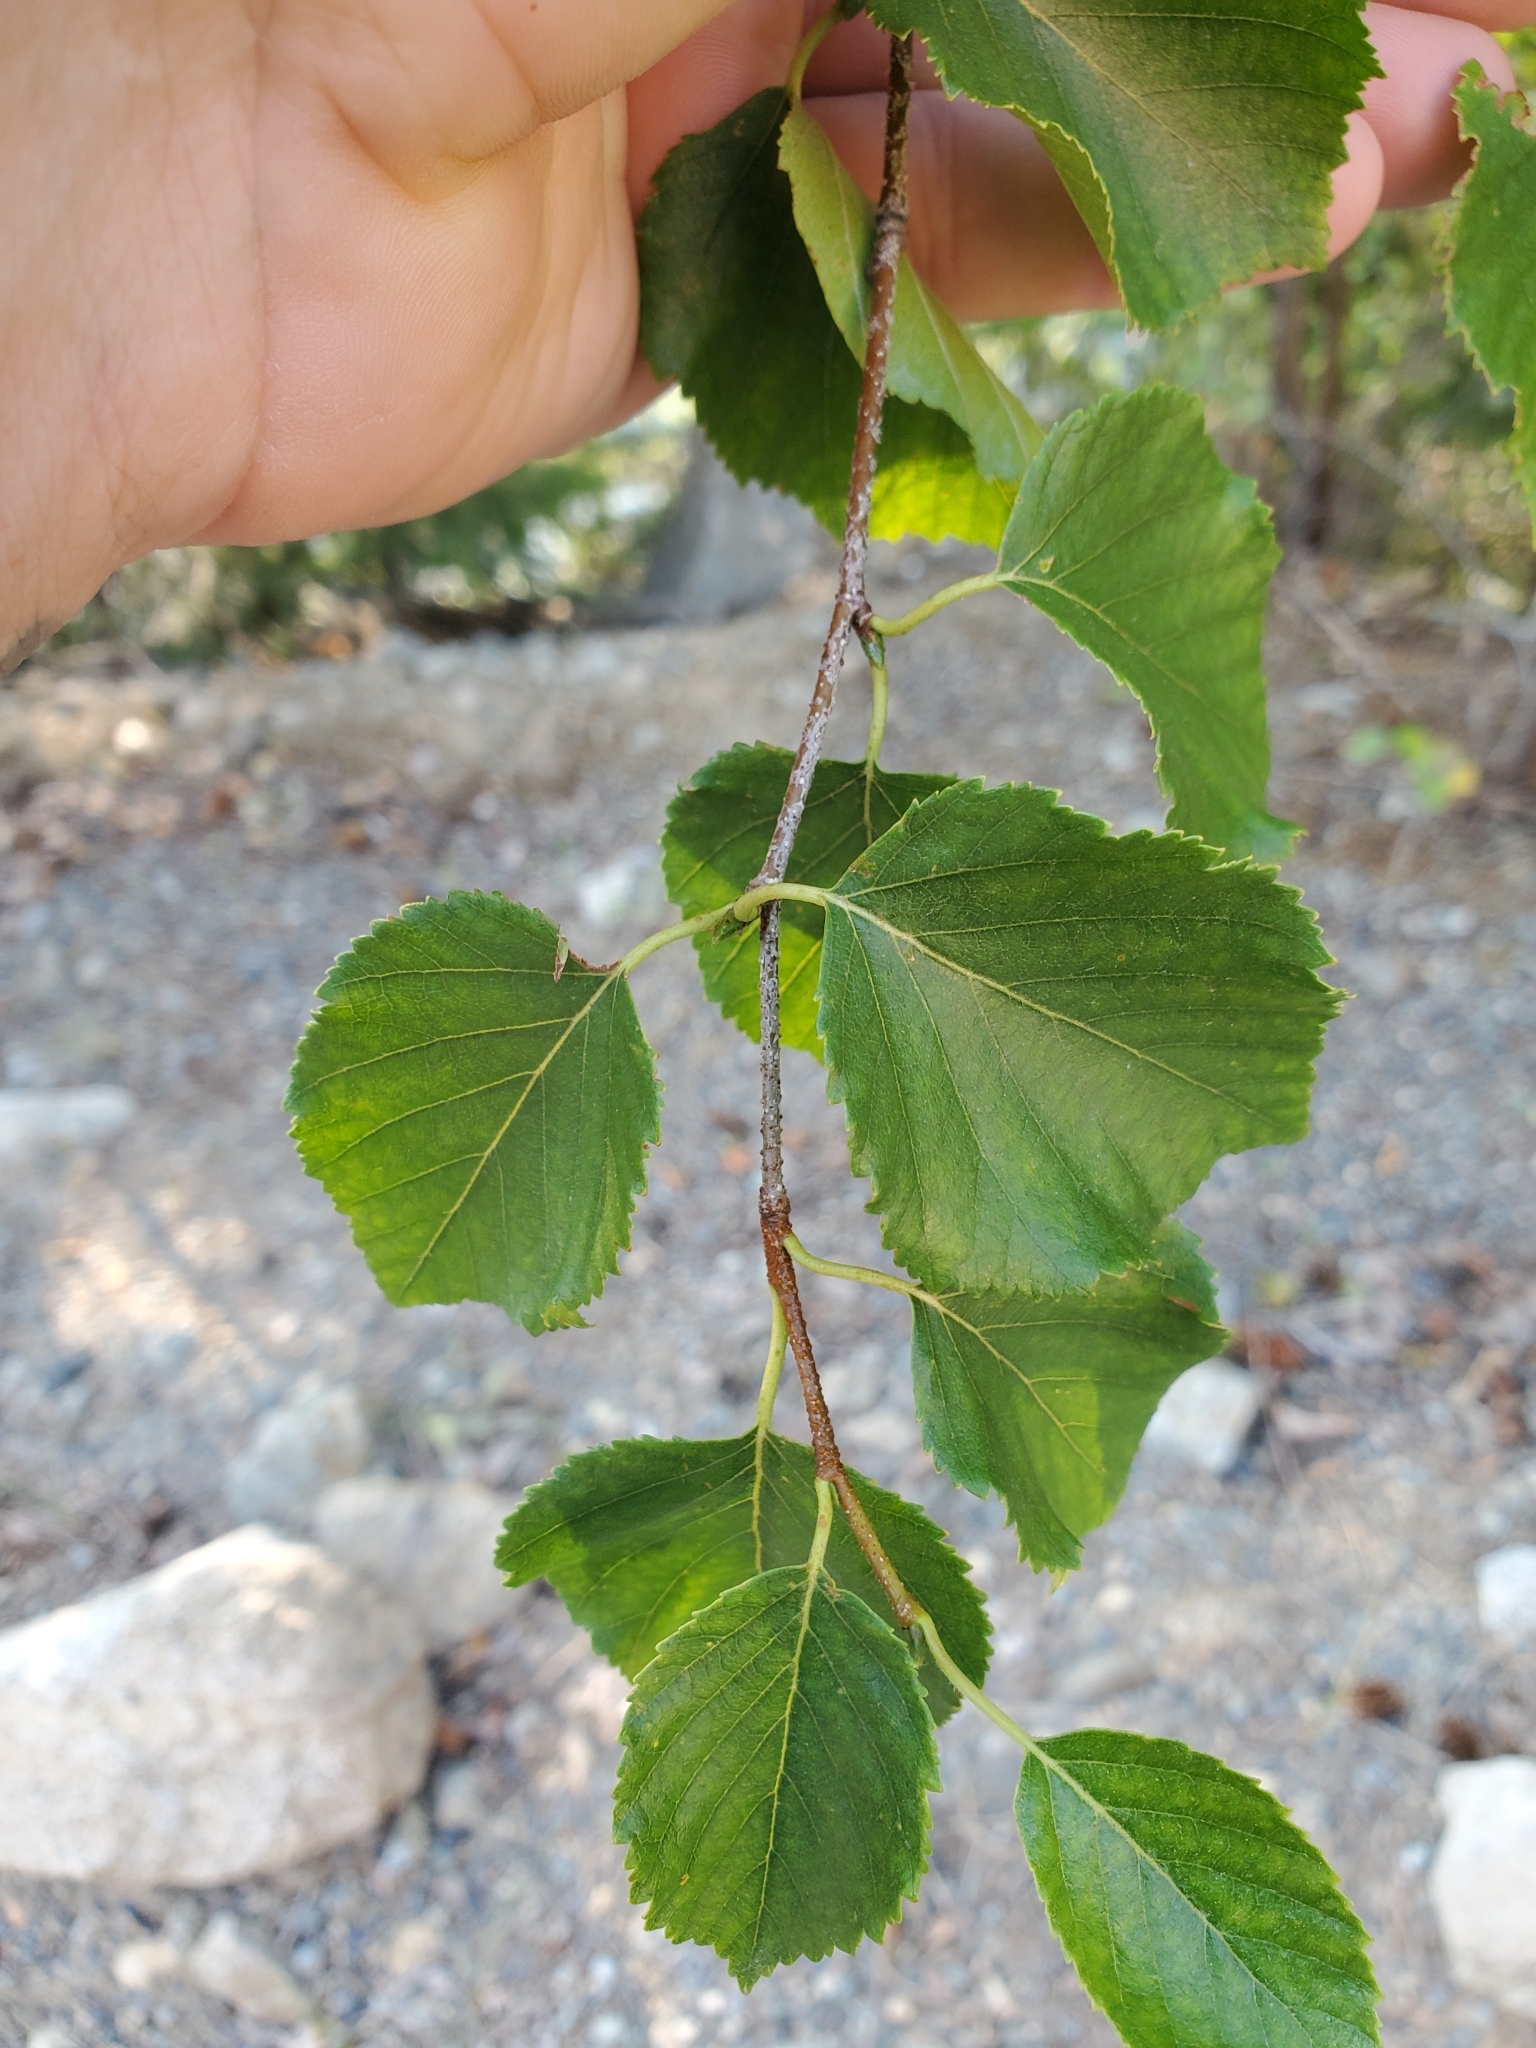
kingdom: Plantae
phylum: Tracheophyta
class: Magnoliopsida
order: Fagales
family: Betulaceae
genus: Betula
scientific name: Betula occidentalis
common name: River birch
